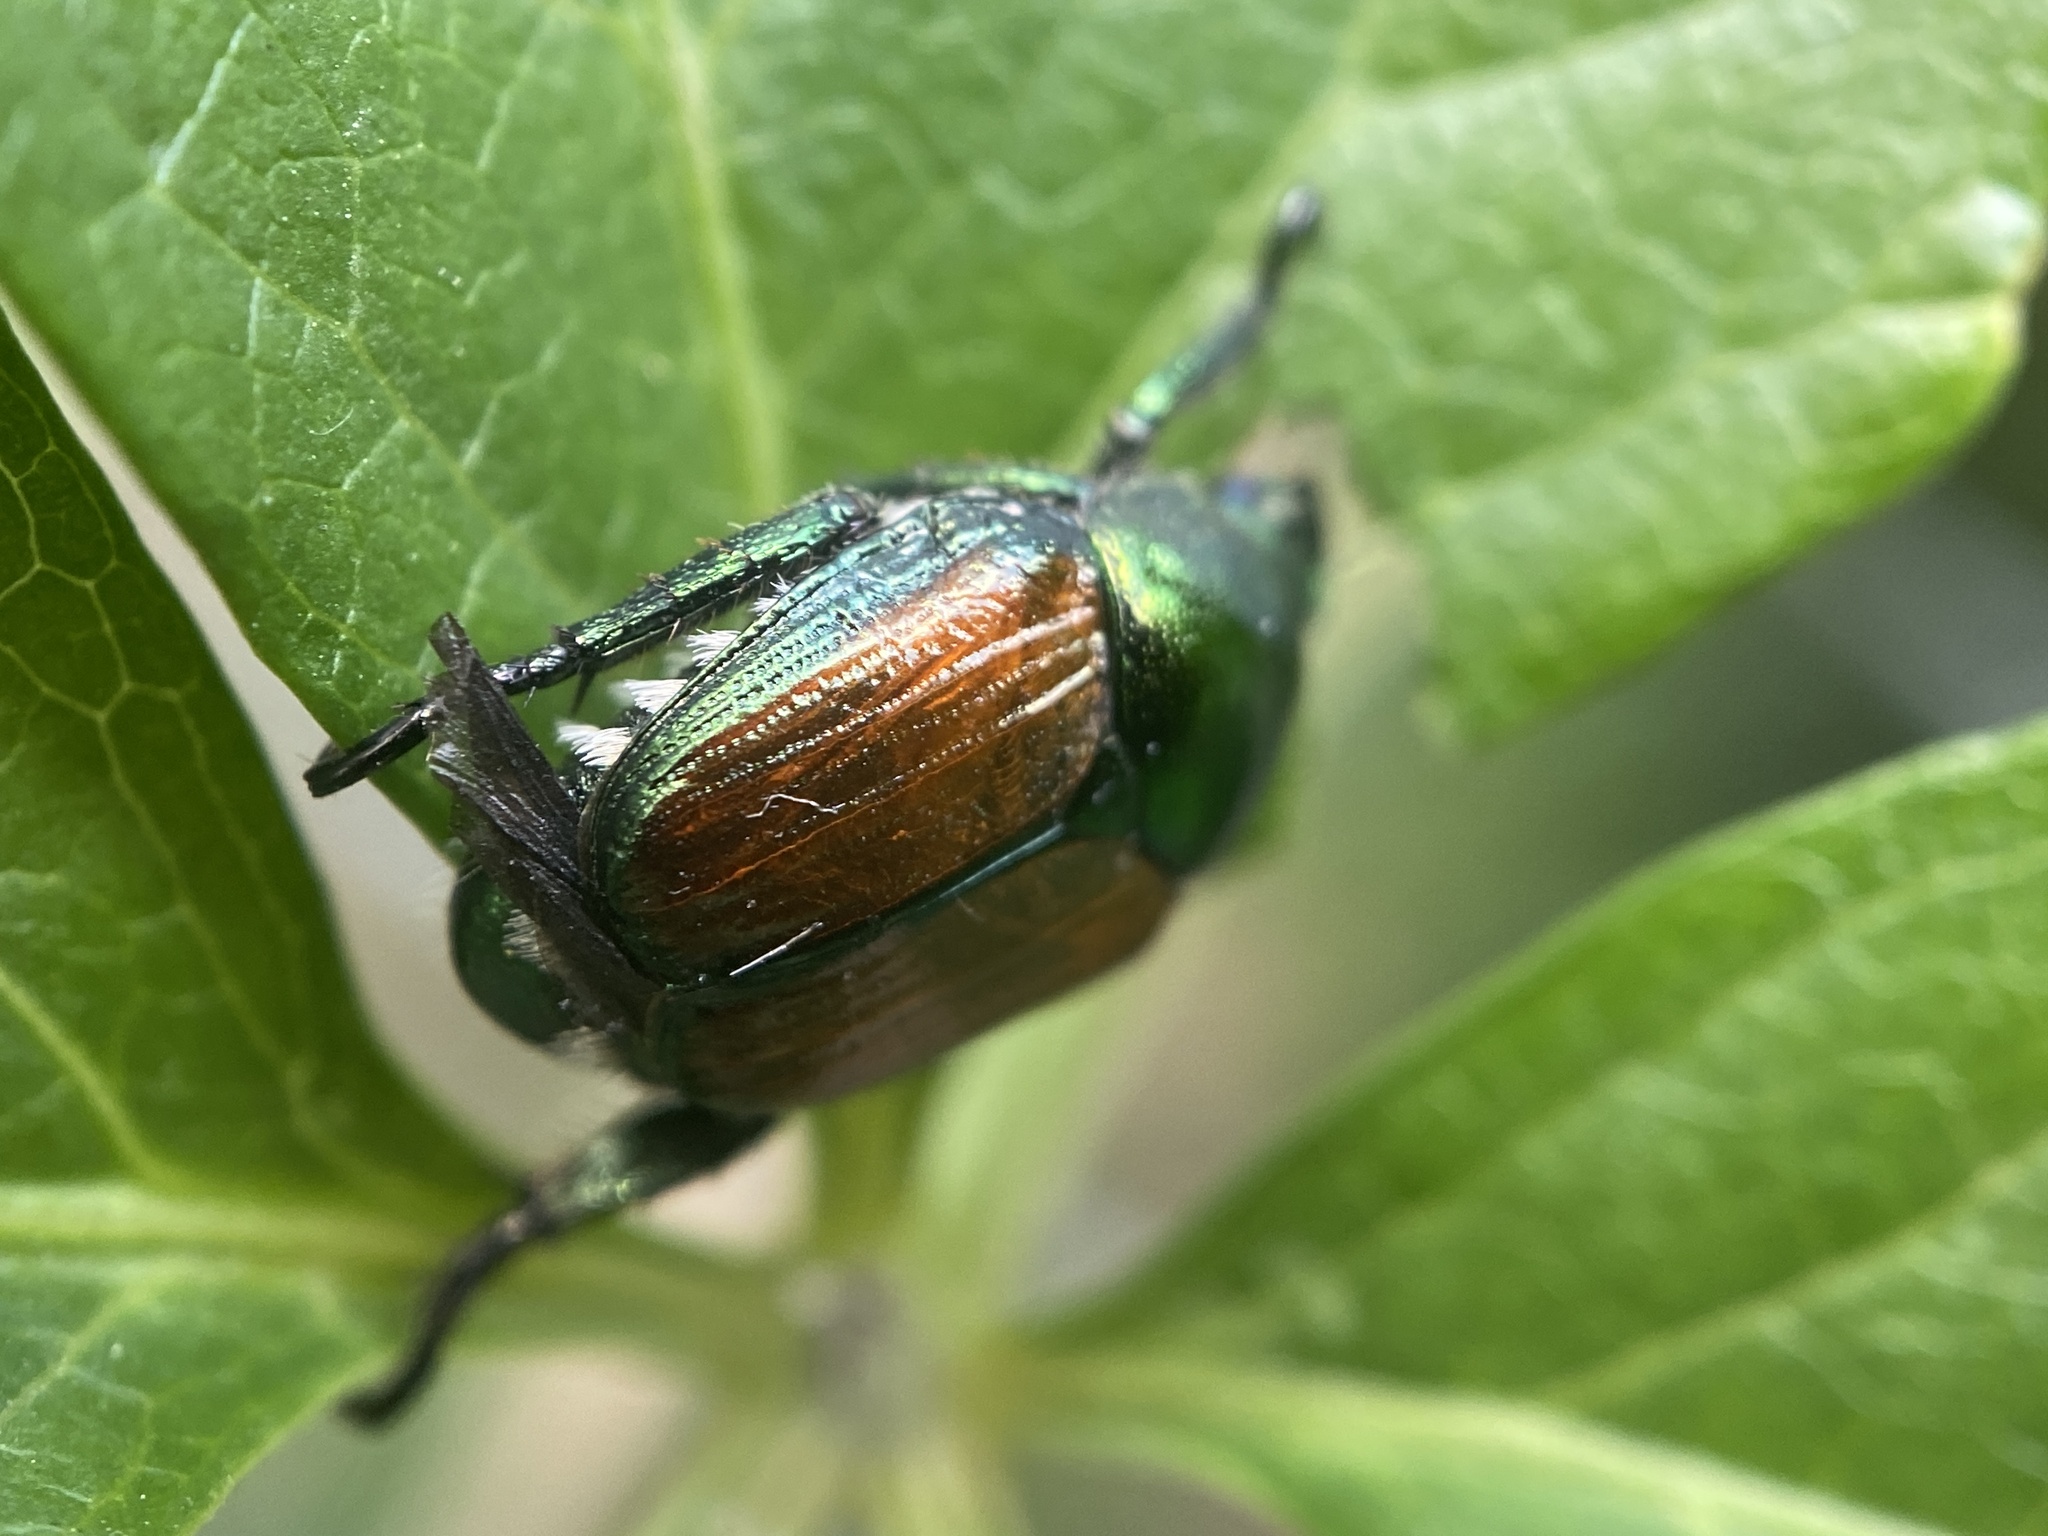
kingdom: Animalia
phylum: Arthropoda
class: Insecta
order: Coleoptera
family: Scarabaeidae
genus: Popillia
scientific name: Popillia japonica
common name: Japanese beetle
